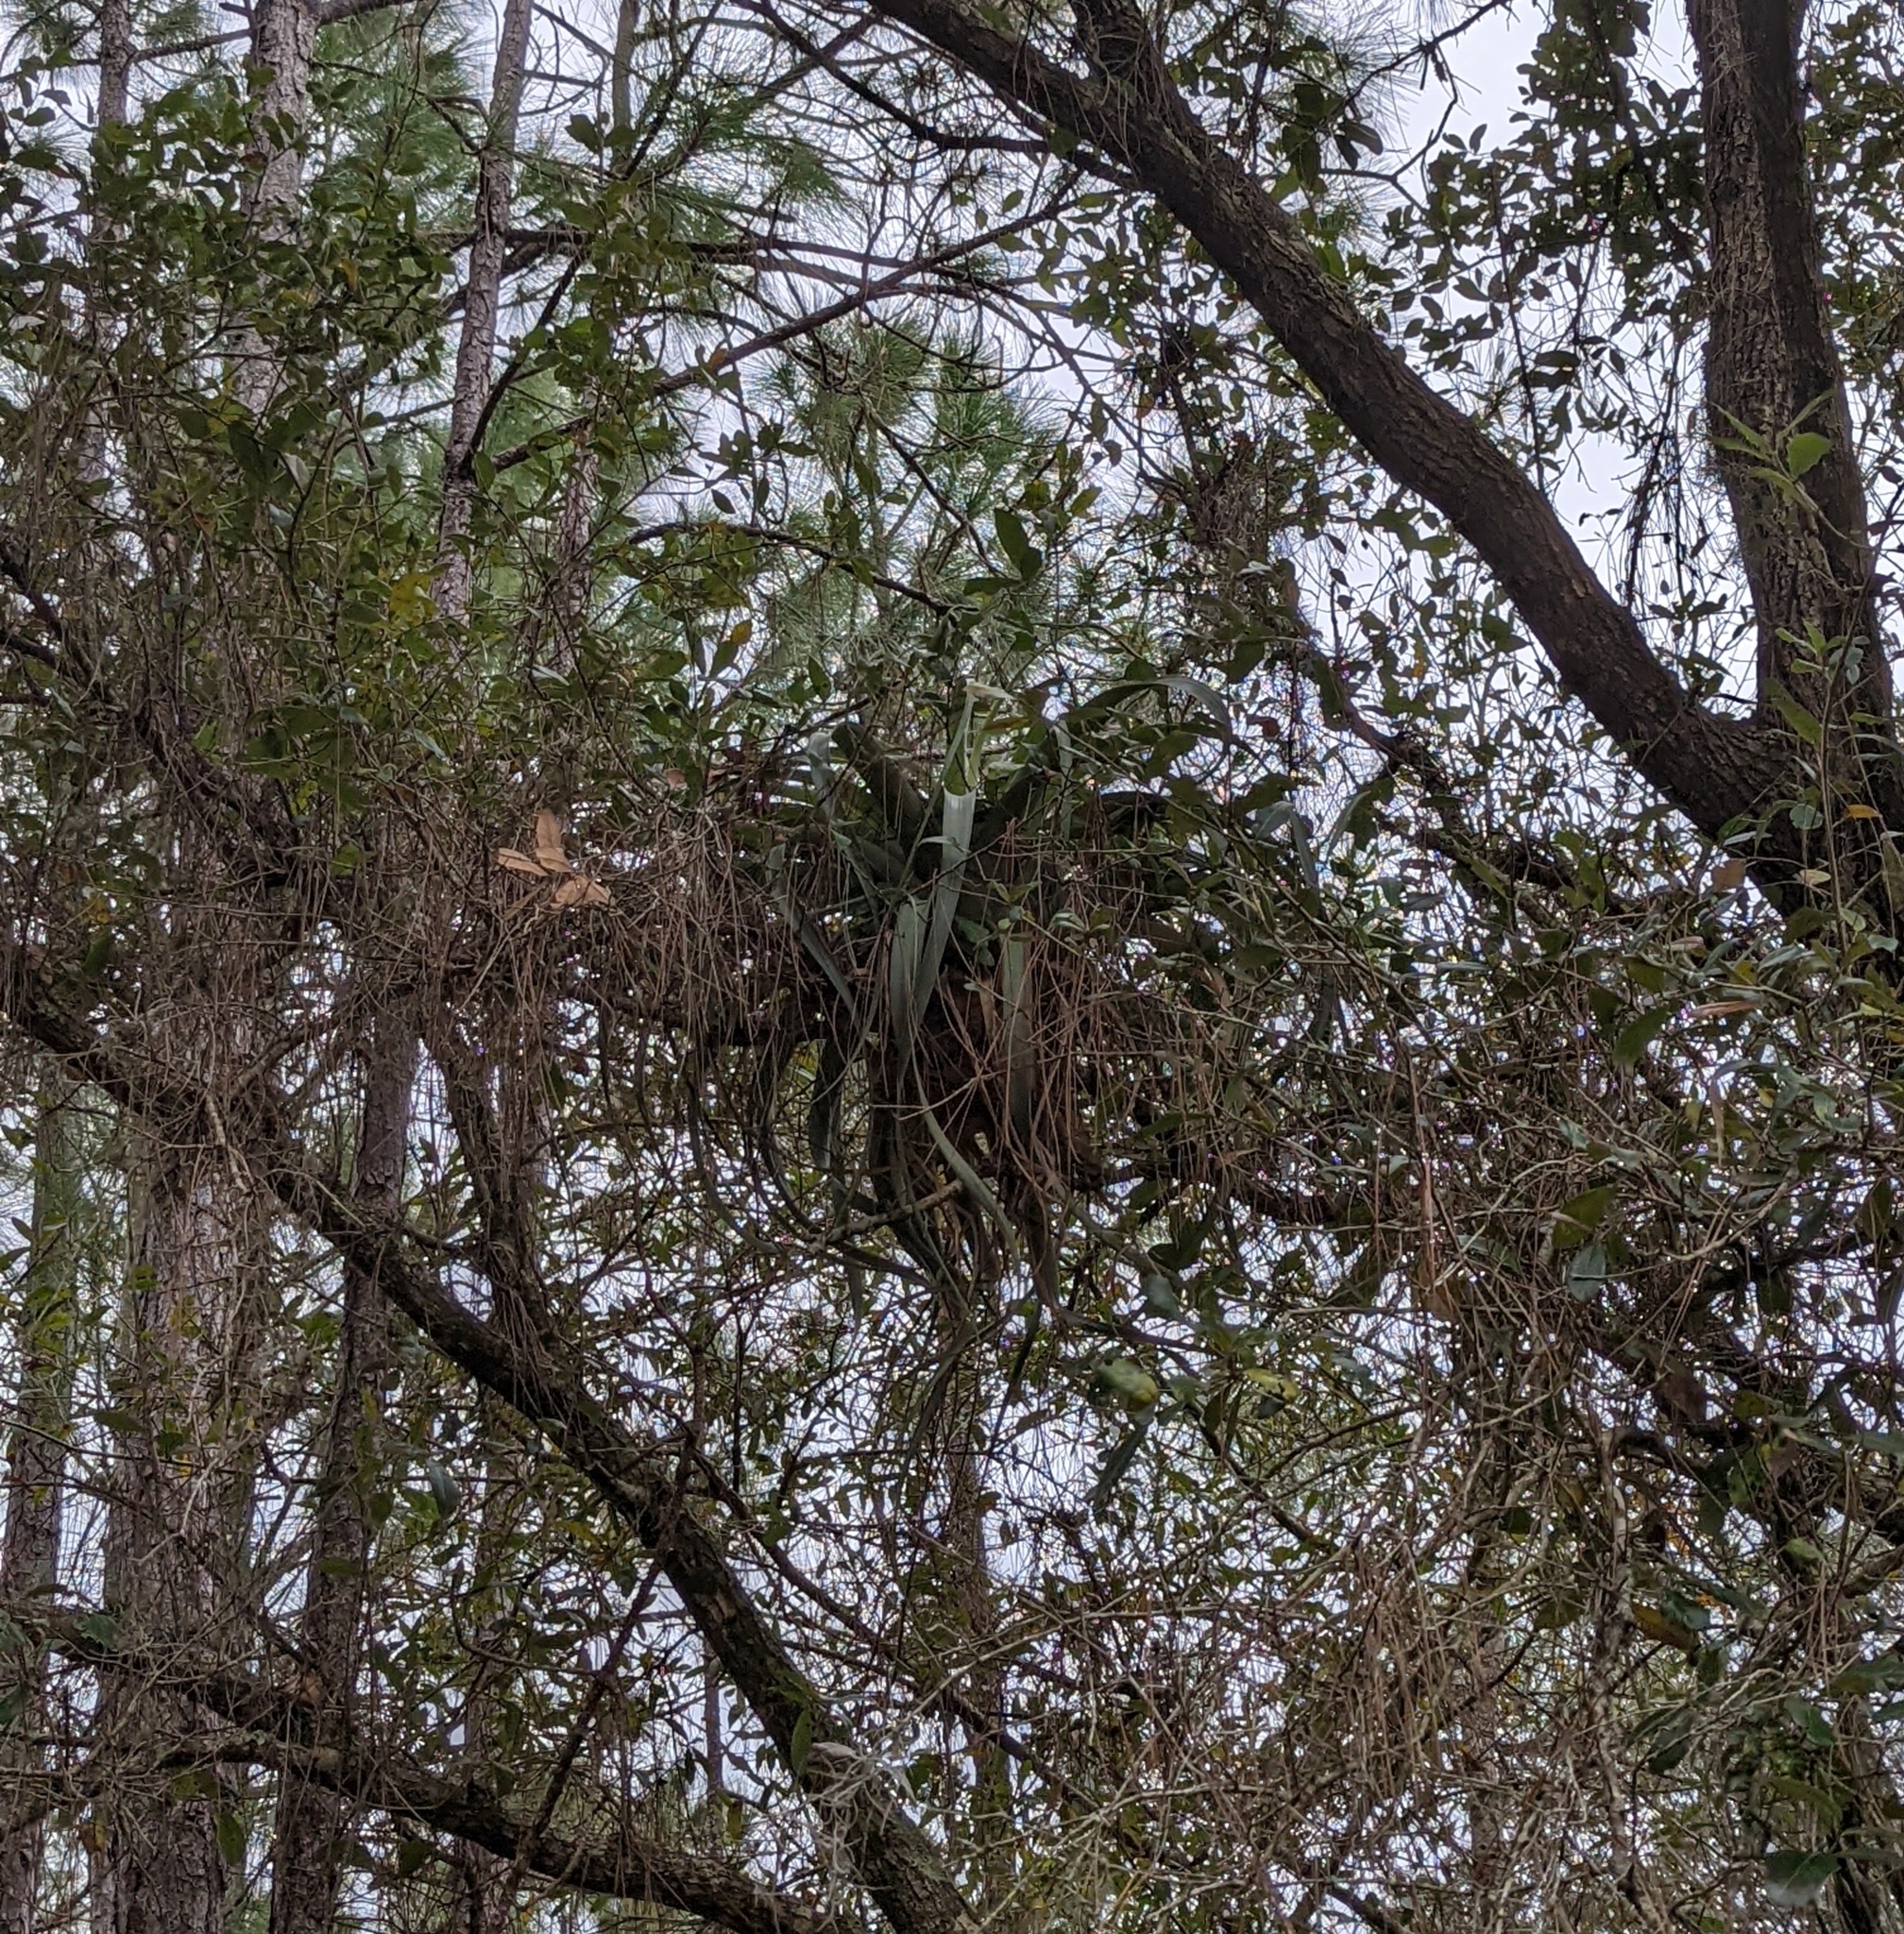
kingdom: Plantae
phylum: Tracheophyta
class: Liliopsida
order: Poales
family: Bromeliaceae
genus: Tillandsia
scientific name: Tillandsia utriculata
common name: Wild pine
